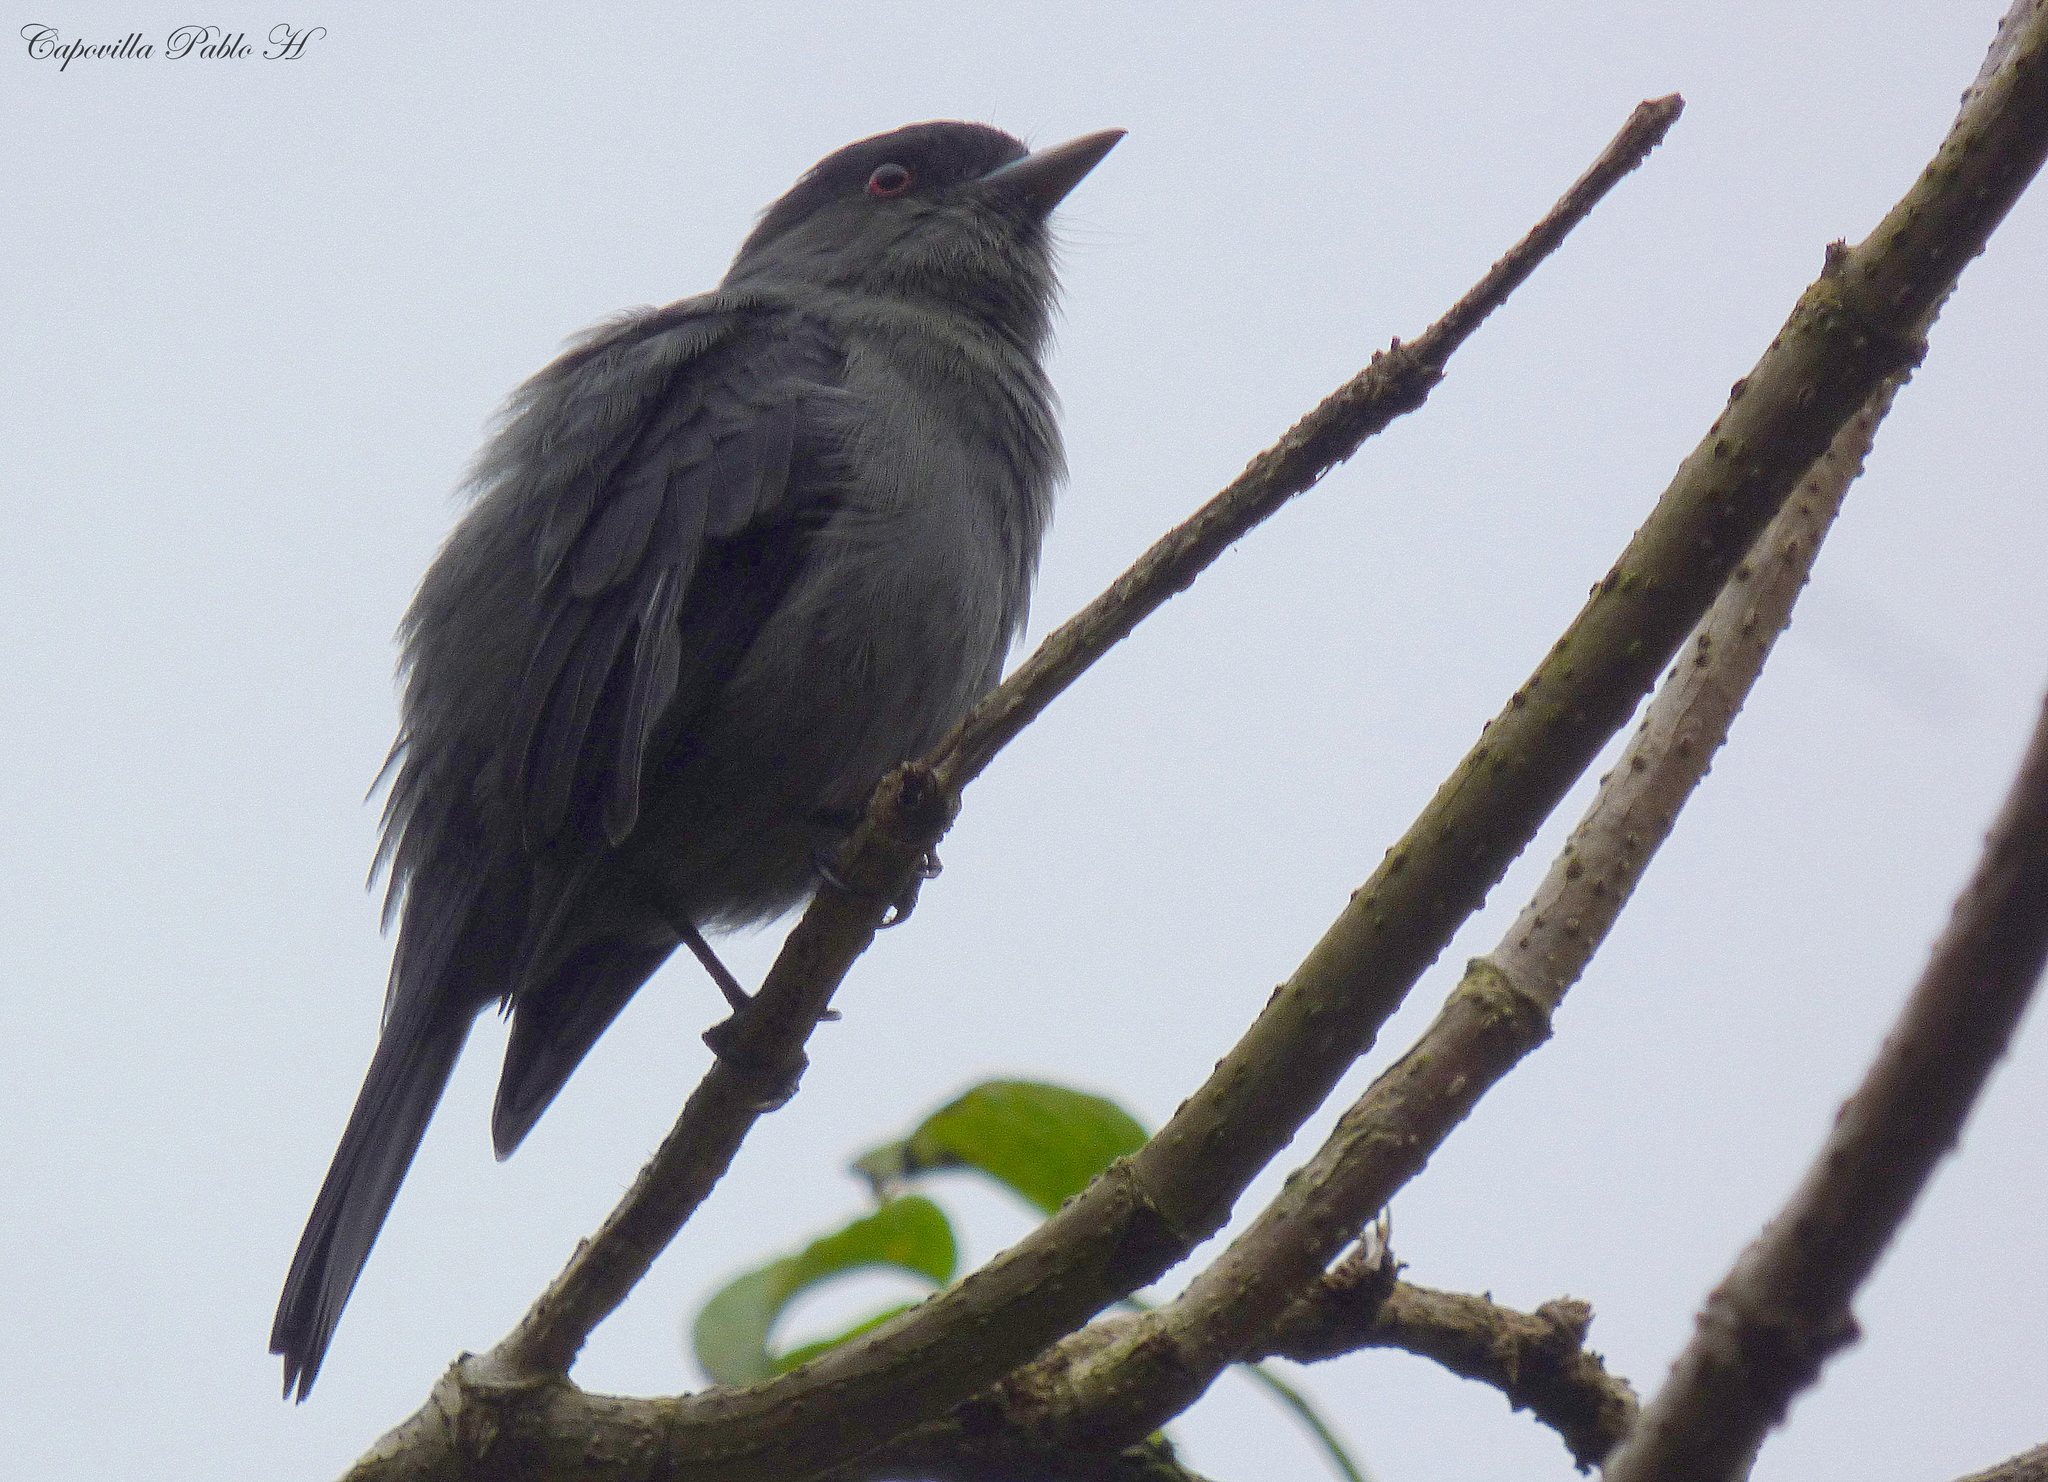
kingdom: Animalia
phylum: Chordata
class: Aves
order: Passeriformes
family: Tyrannidae
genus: Knipolegus
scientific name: Knipolegus cabanisi
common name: Plumbeous tyrant
